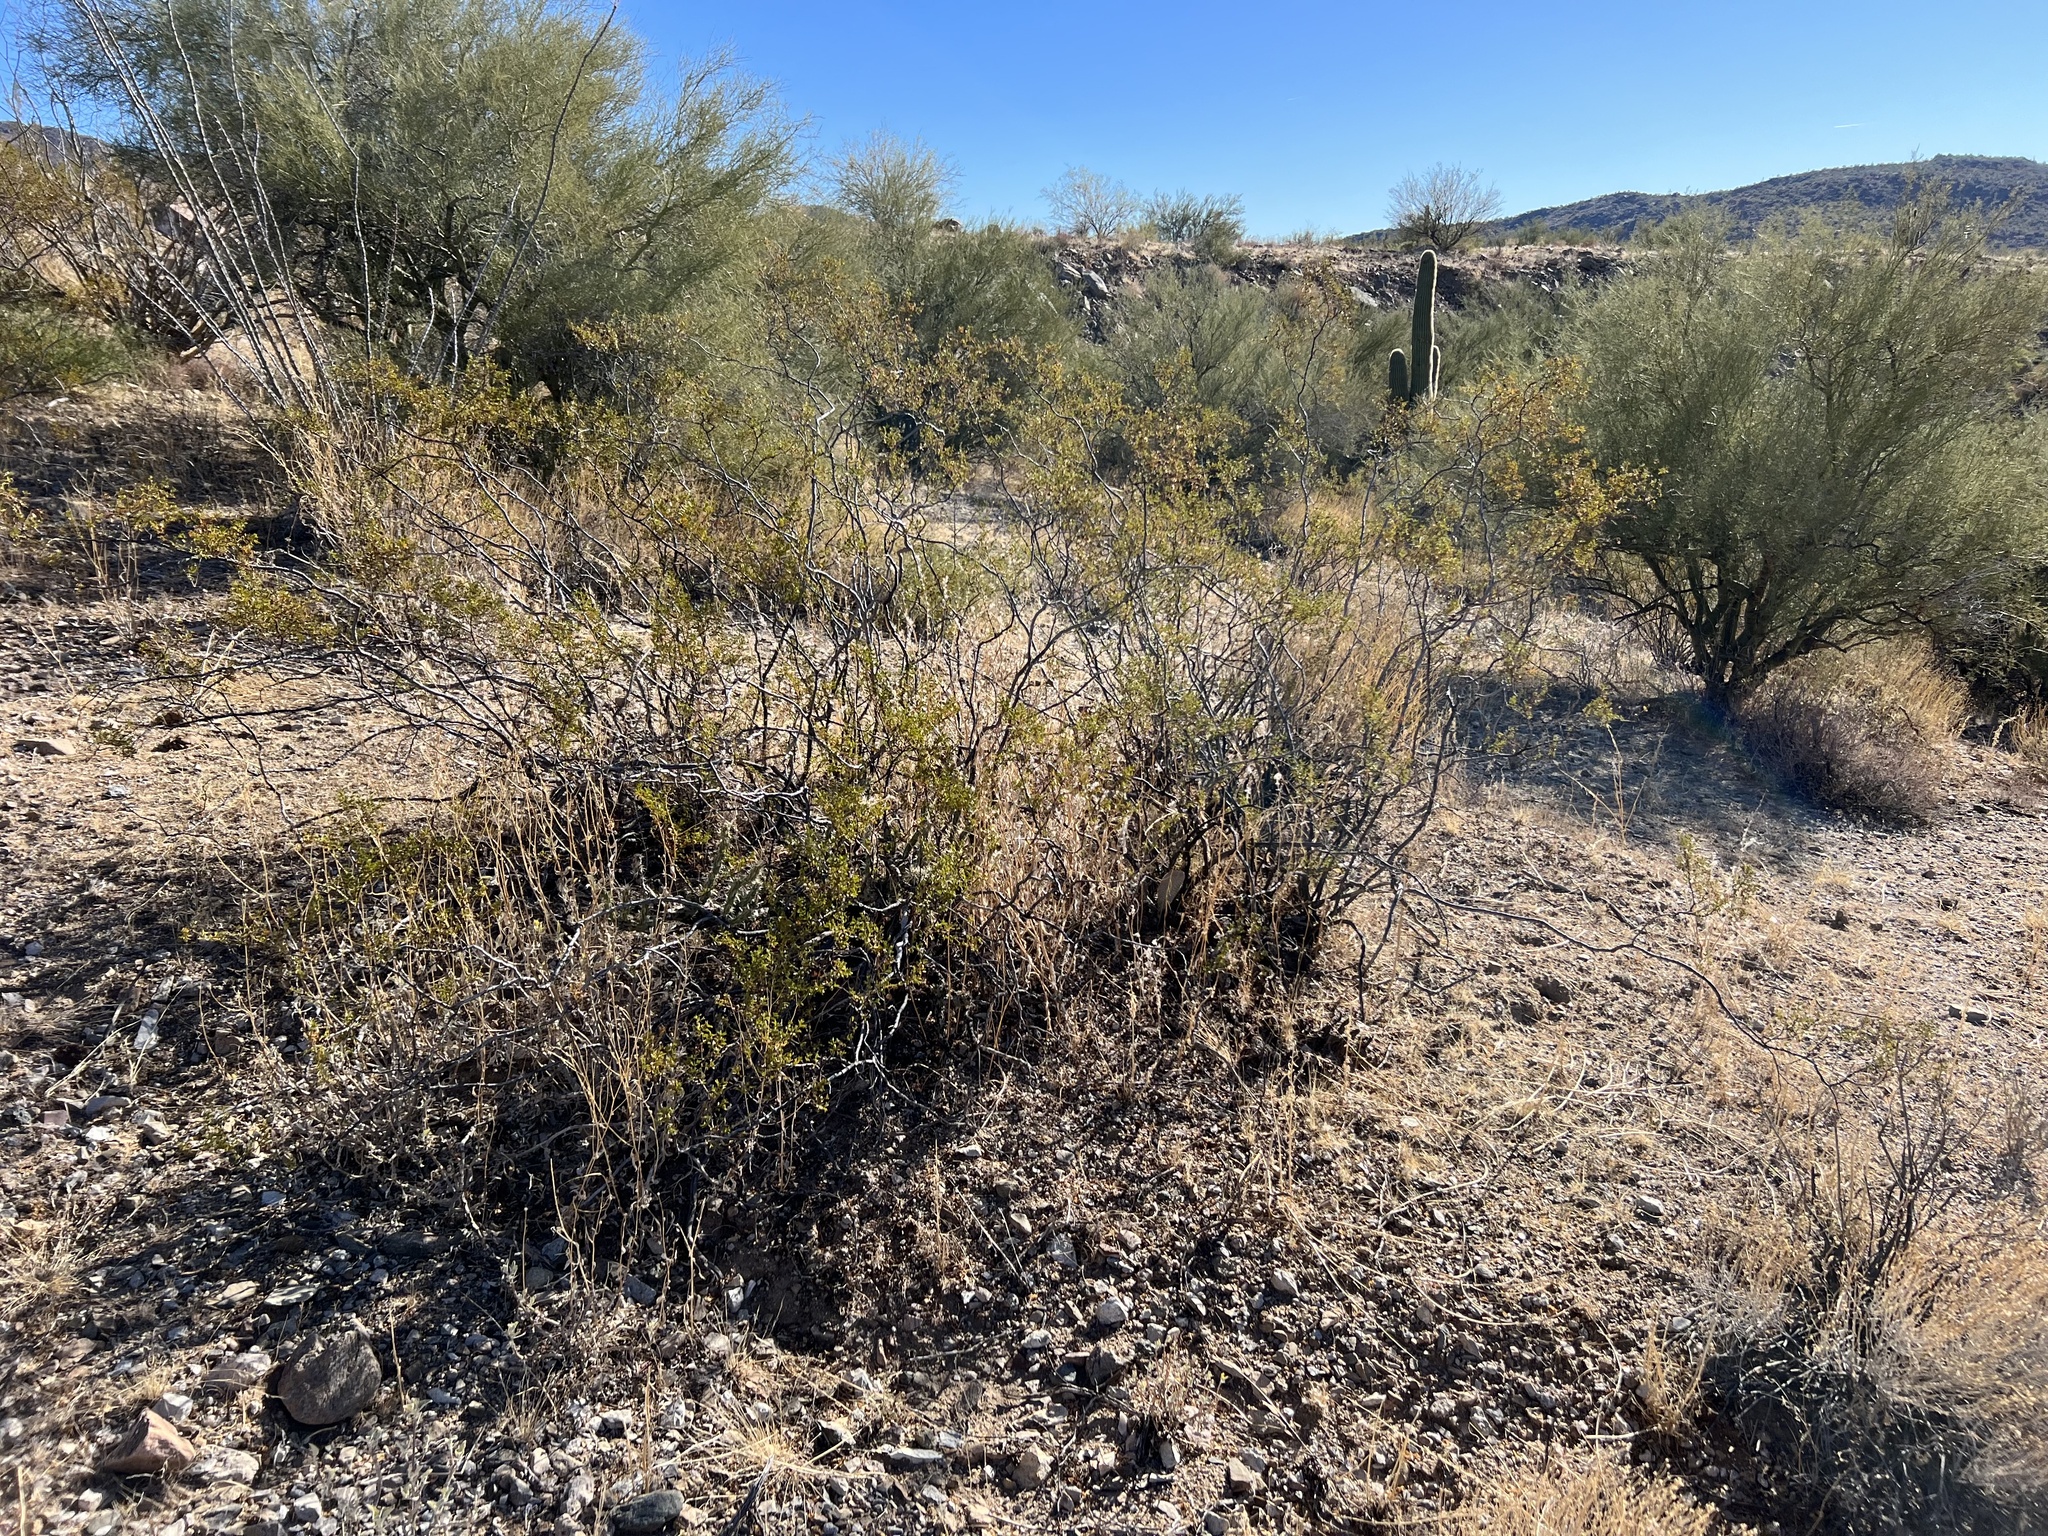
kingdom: Plantae
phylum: Tracheophyta
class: Magnoliopsida
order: Zygophyllales
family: Zygophyllaceae
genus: Larrea
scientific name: Larrea tridentata
